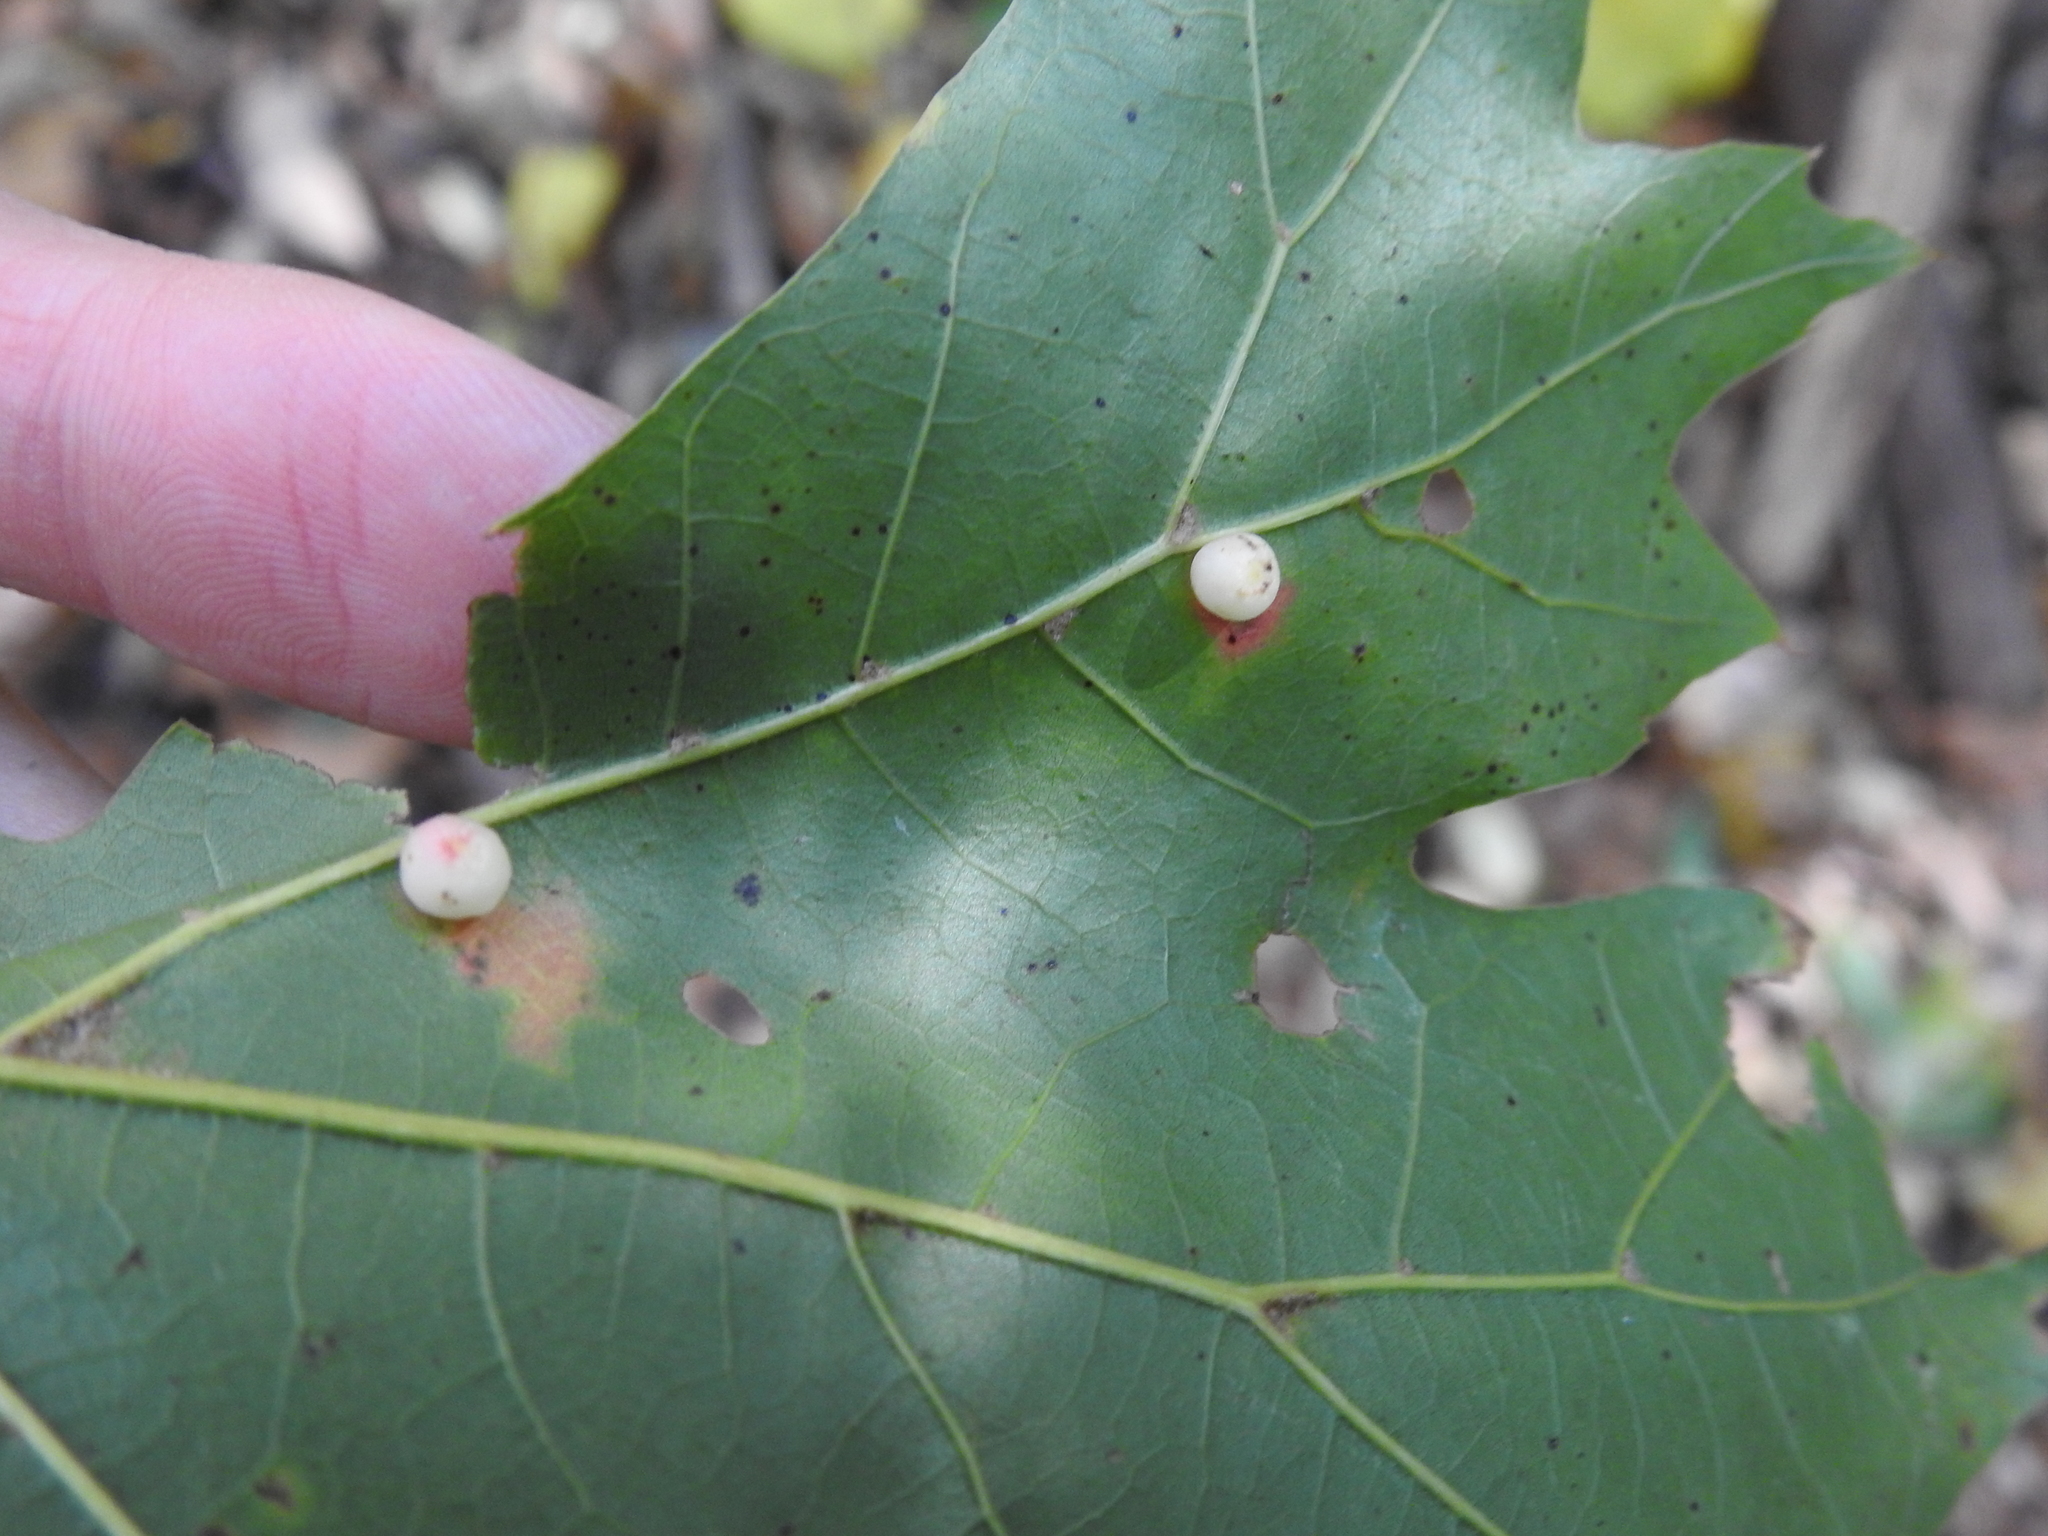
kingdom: Animalia
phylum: Arthropoda
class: Insecta
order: Hymenoptera
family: Cynipidae
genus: Zopheroteras
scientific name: Zopheroteras
